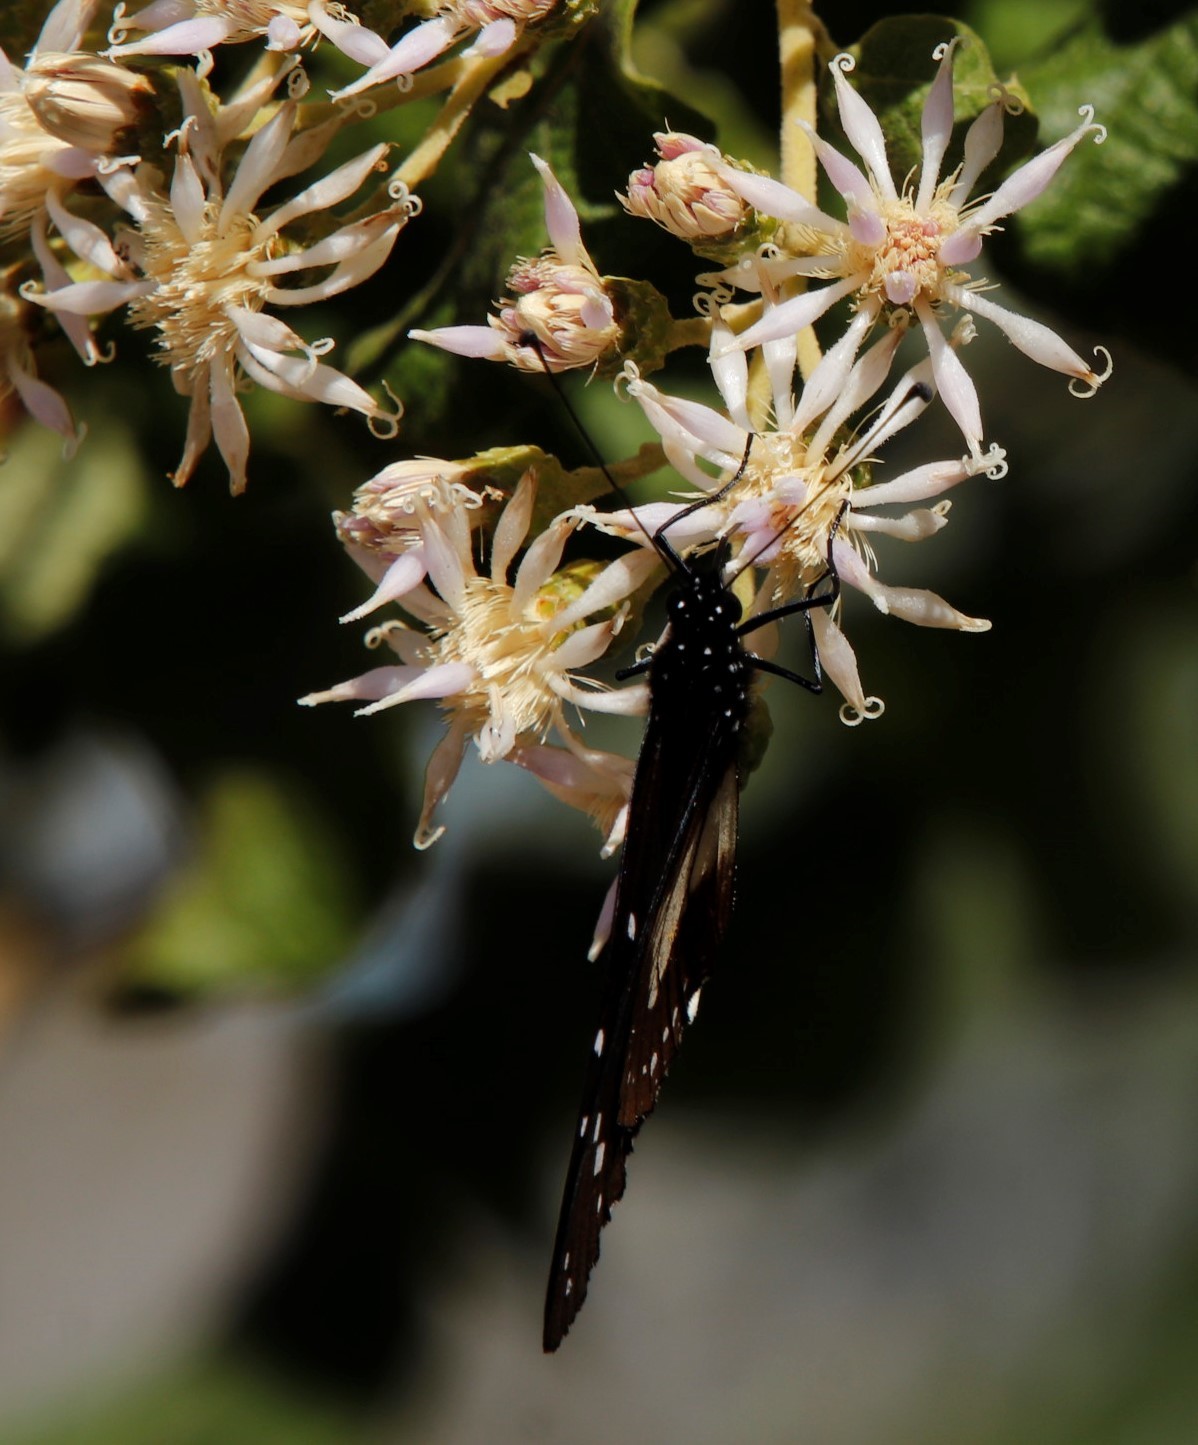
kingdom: Animalia
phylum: Arthropoda
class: Insecta
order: Lepidoptera
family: Nymphalidae
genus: Amauris
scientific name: Amauris albimaculata
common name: Layman
